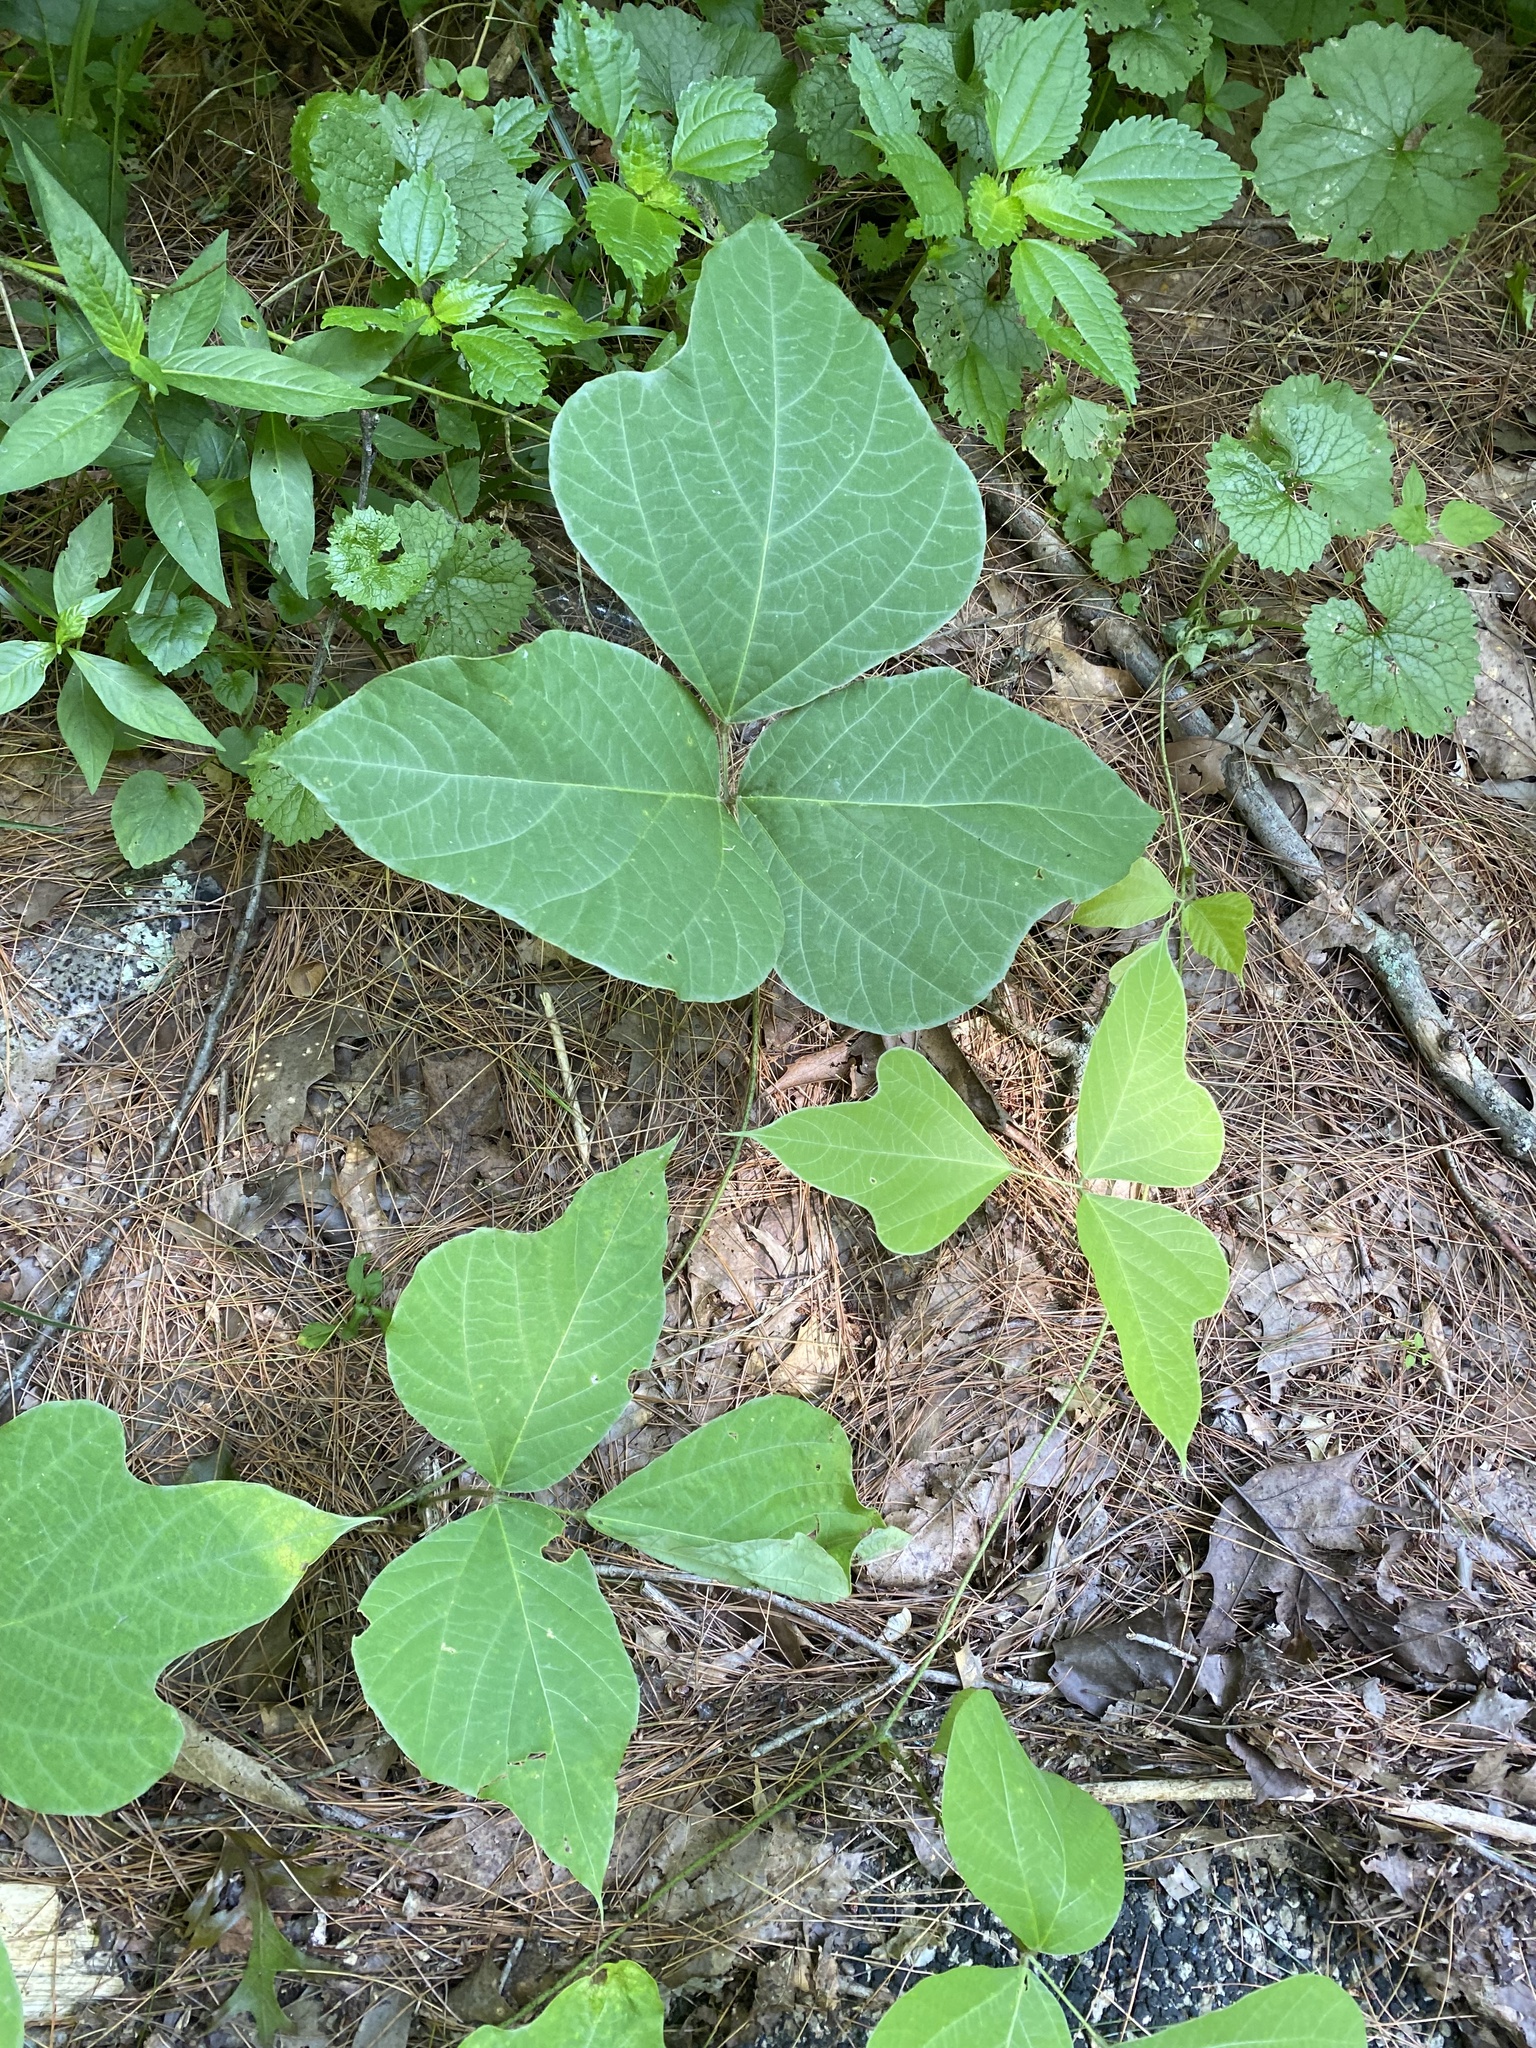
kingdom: Plantae
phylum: Tracheophyta
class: Magnoliopsida
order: Fabales
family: Fabaceae
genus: Pueraria
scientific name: Pueraria montana
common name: Kudzu
